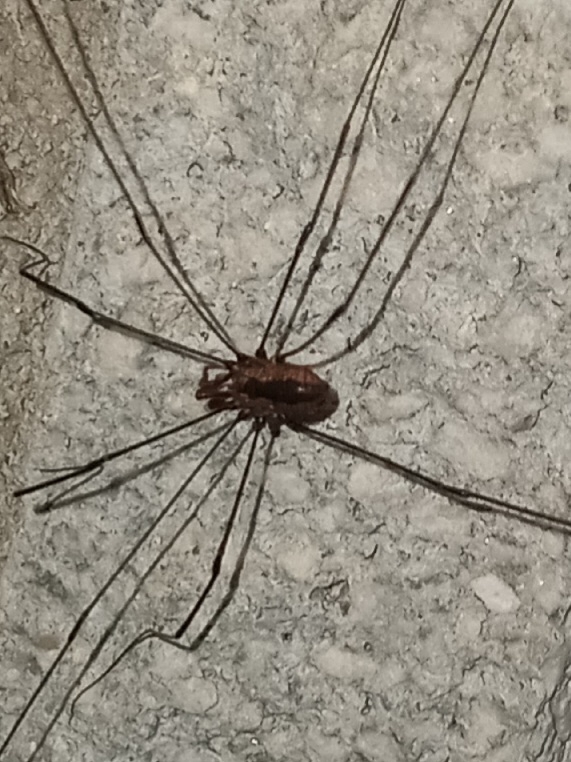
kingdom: Animalia
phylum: Arthropoda
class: Arachnida
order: Opiliones
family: Sclerosomatidae
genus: Leiobunum
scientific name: Leiobunum vittatum
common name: Eastern harvestman
